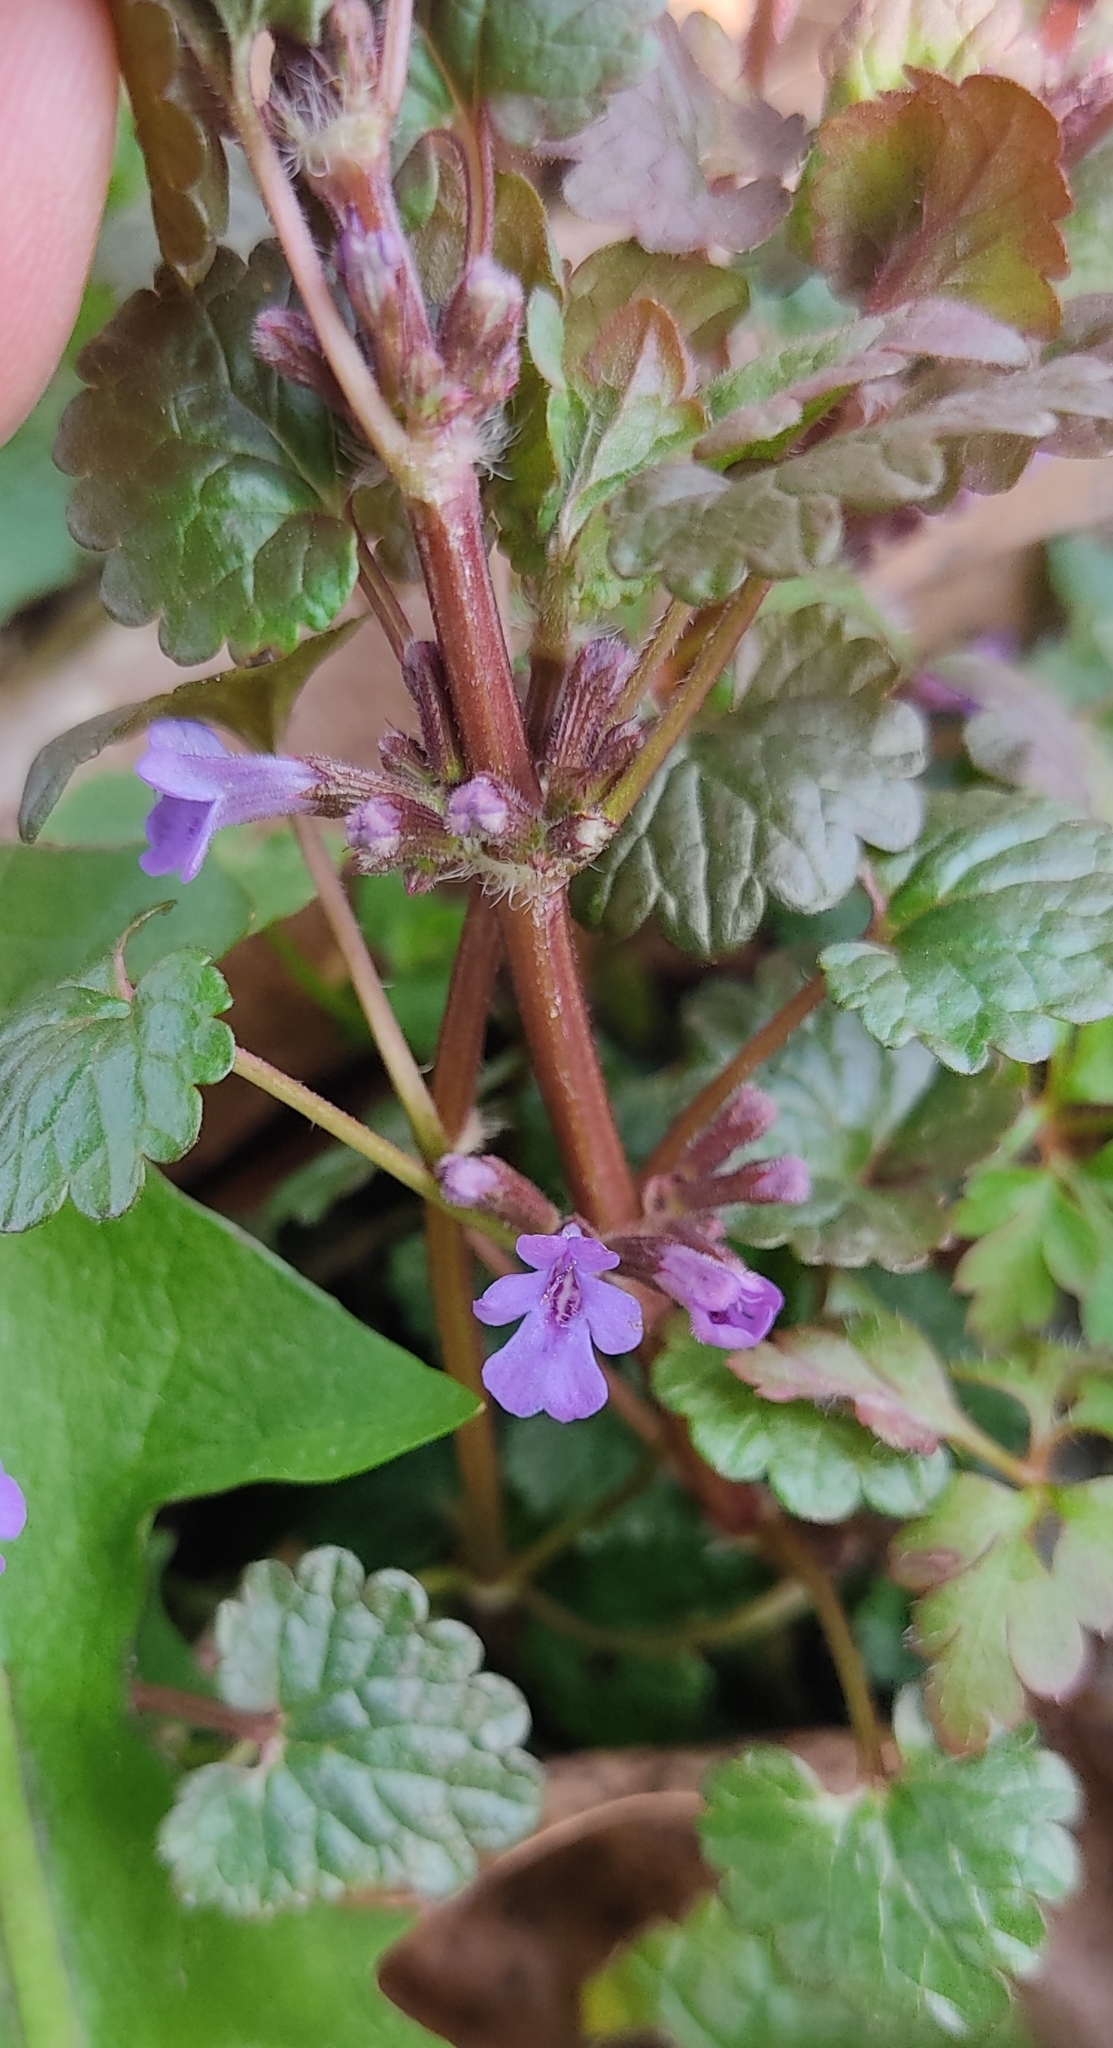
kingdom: Plantae
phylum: Tracheophyta
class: Magnoliopsida
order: Lamiales
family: Lamiaceae
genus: Glechoma
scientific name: Glechoma hederacea
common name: Ground ivy
